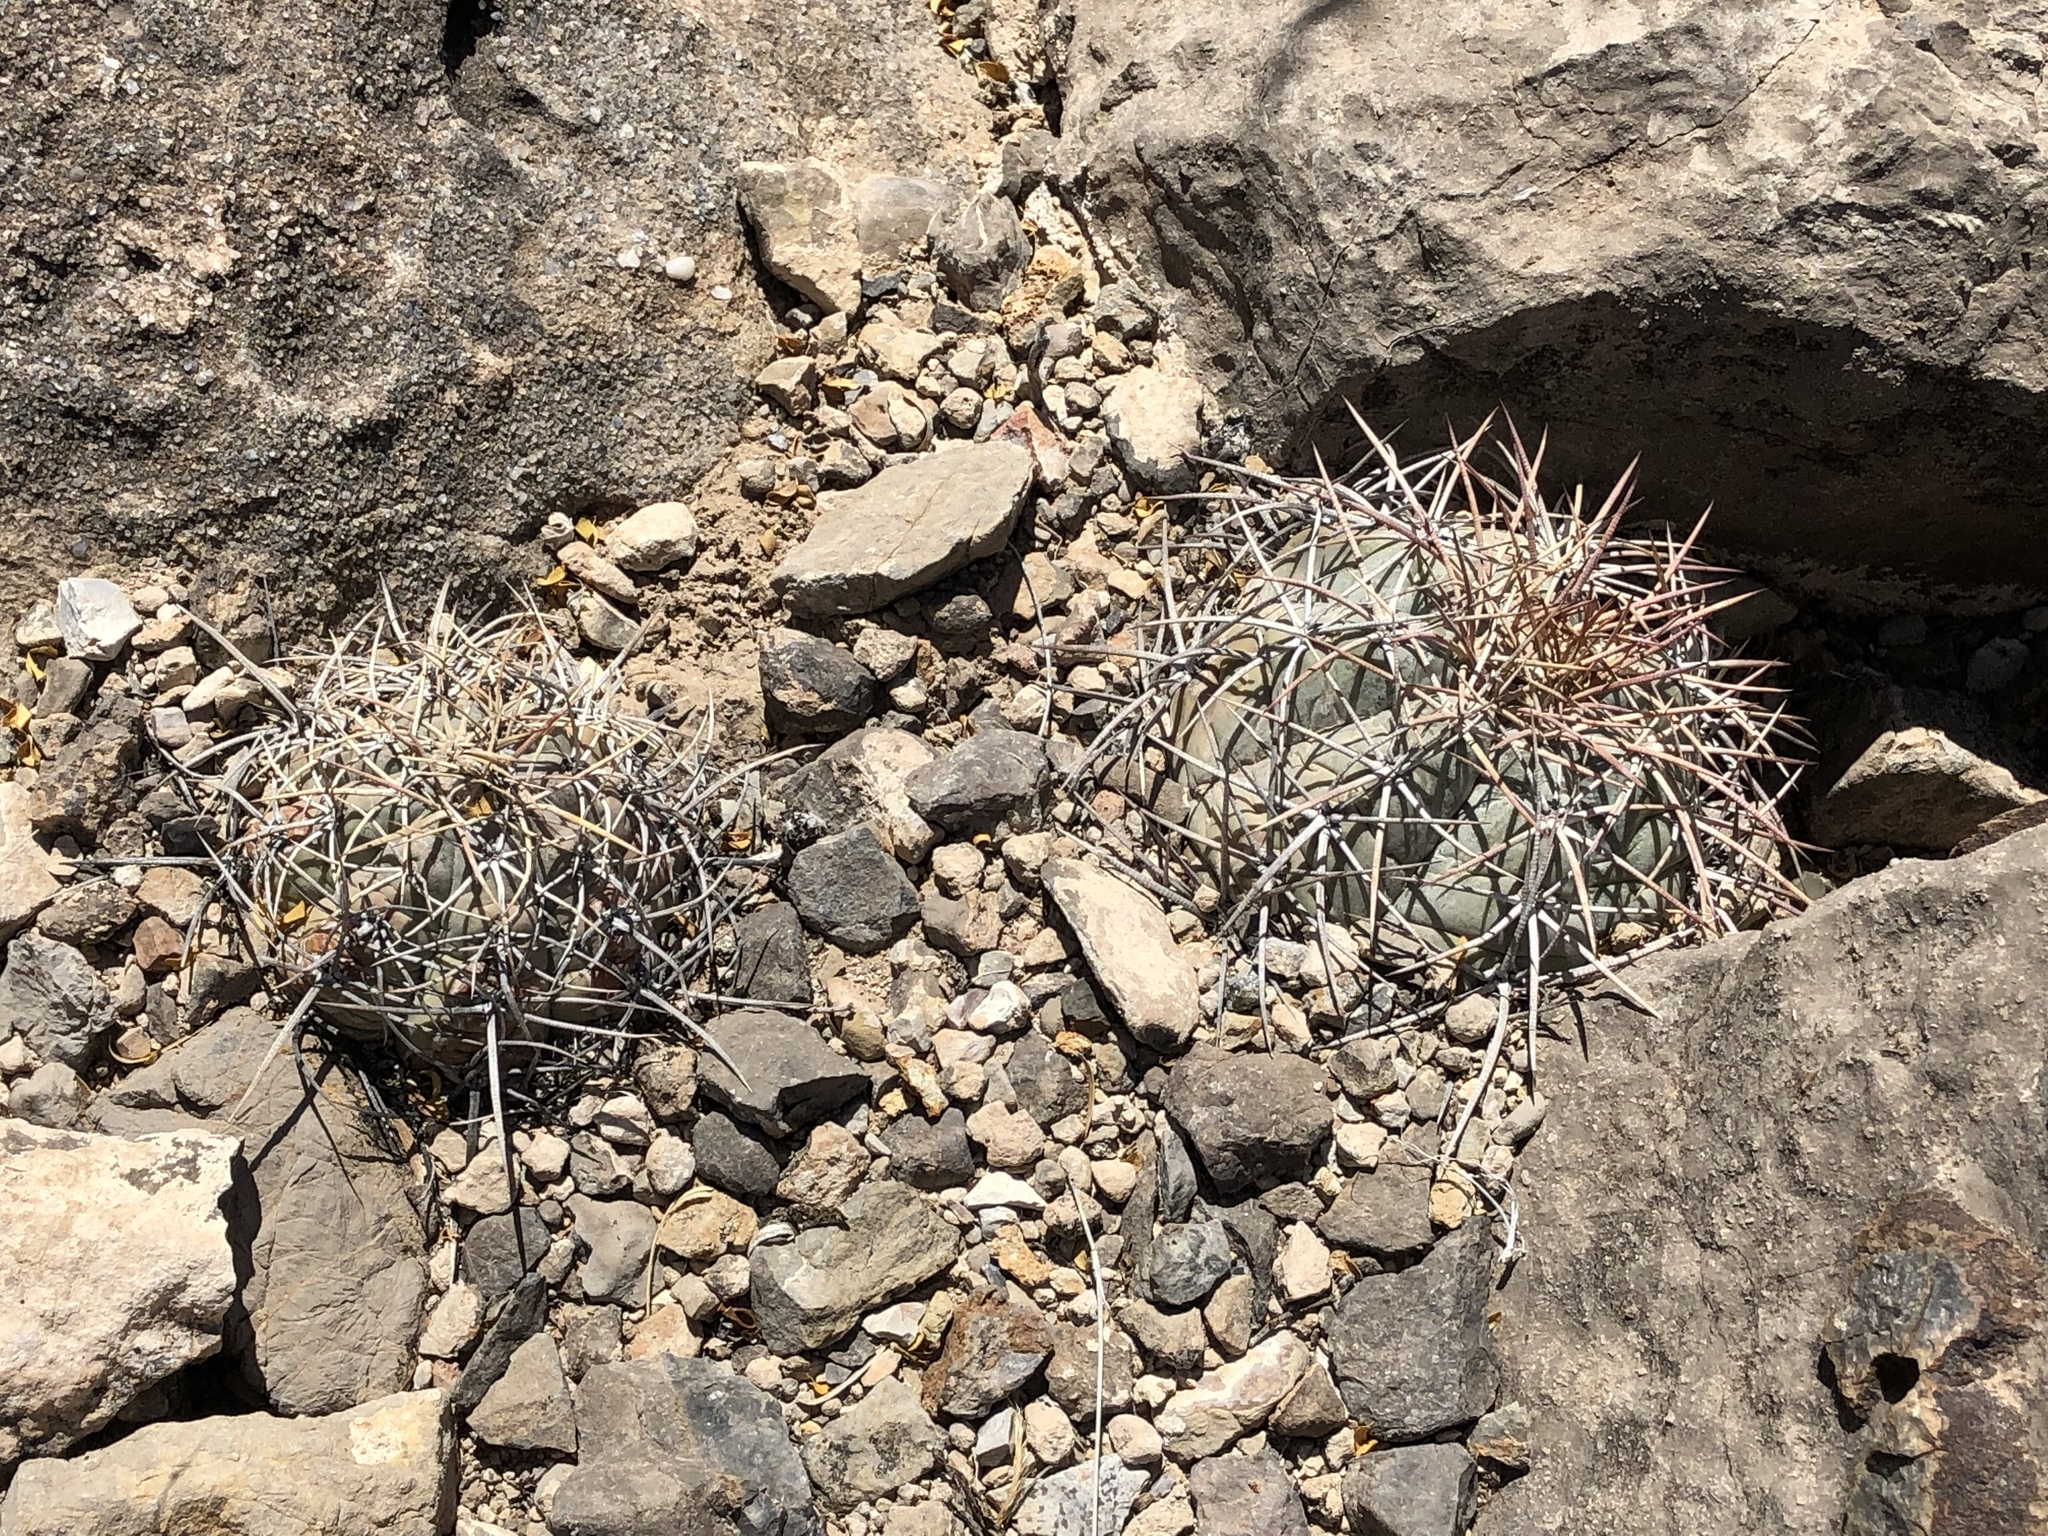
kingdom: Plantae
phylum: Tracheophyta
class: Magnoliopsida
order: Caryophyllales
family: Cactaceae
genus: Echinocactus
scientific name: Echinocactus horizonthalonius
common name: Devilshead
